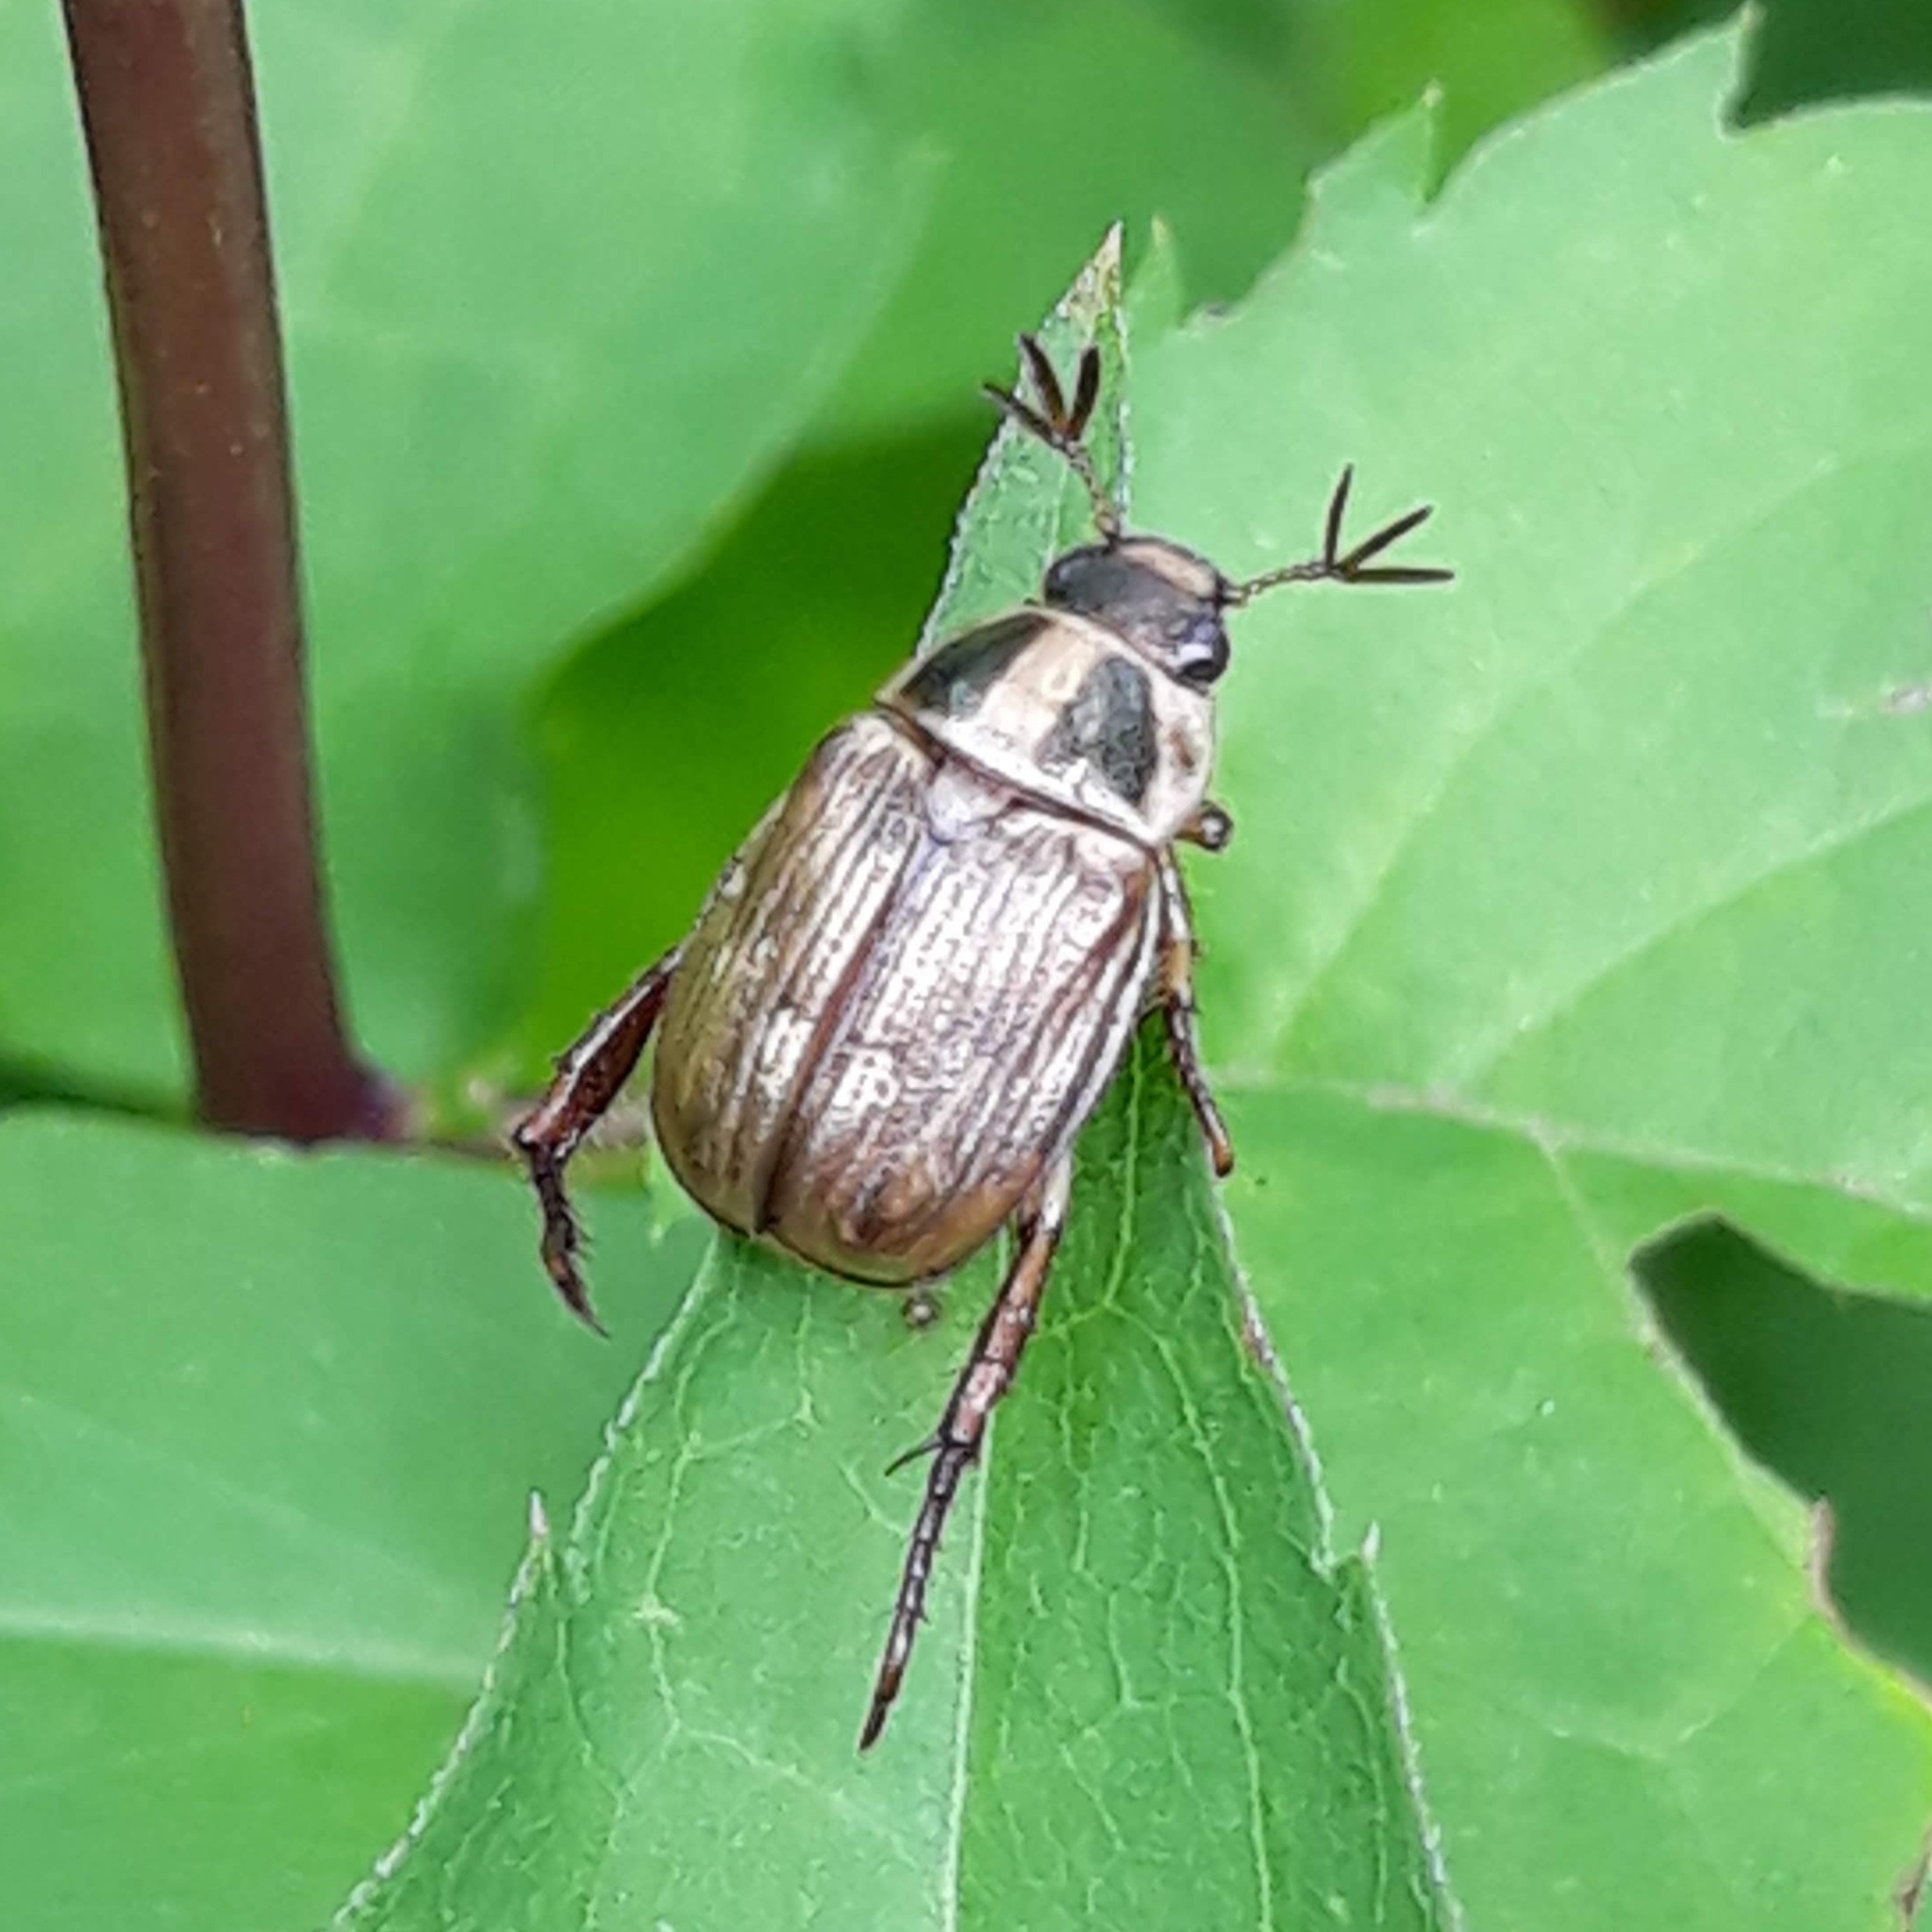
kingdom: Animalia
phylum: Arthropoda
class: Insecta
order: Coleoptera
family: Scarabaeidae
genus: Exomala
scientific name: Exomala orientalis
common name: Oriental beetle
